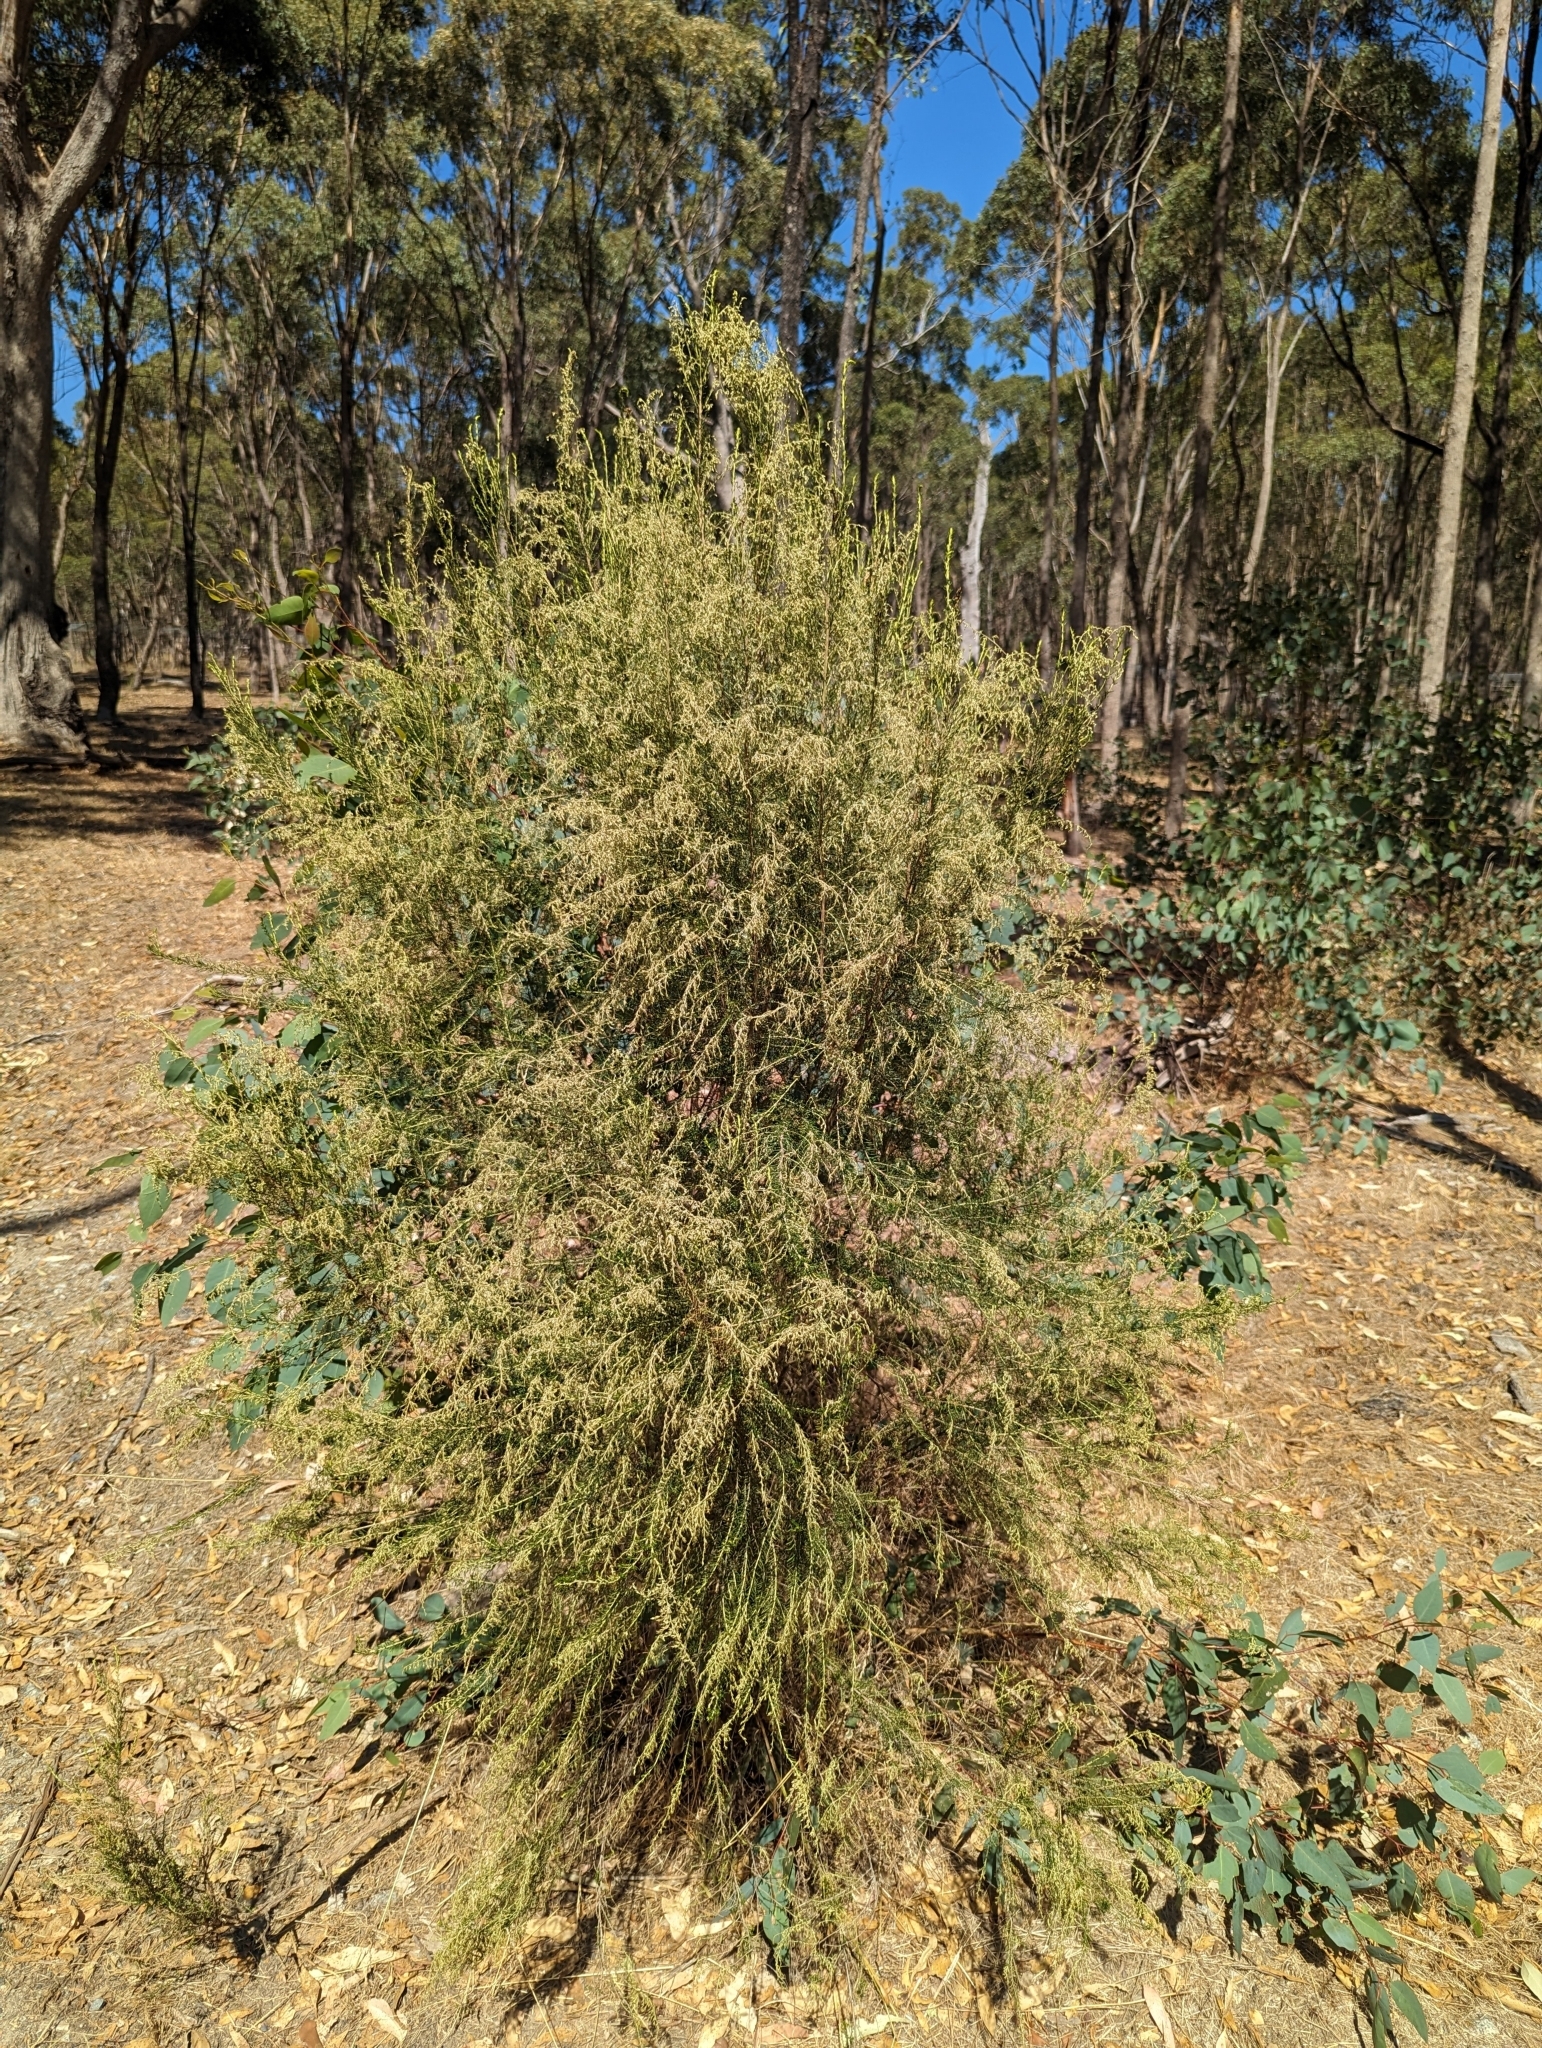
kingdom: Plantae
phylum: Tracheophyta
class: Magnoliopsida
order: Asterales
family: Asteraceae
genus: Cassinia
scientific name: Cassinia sifton
